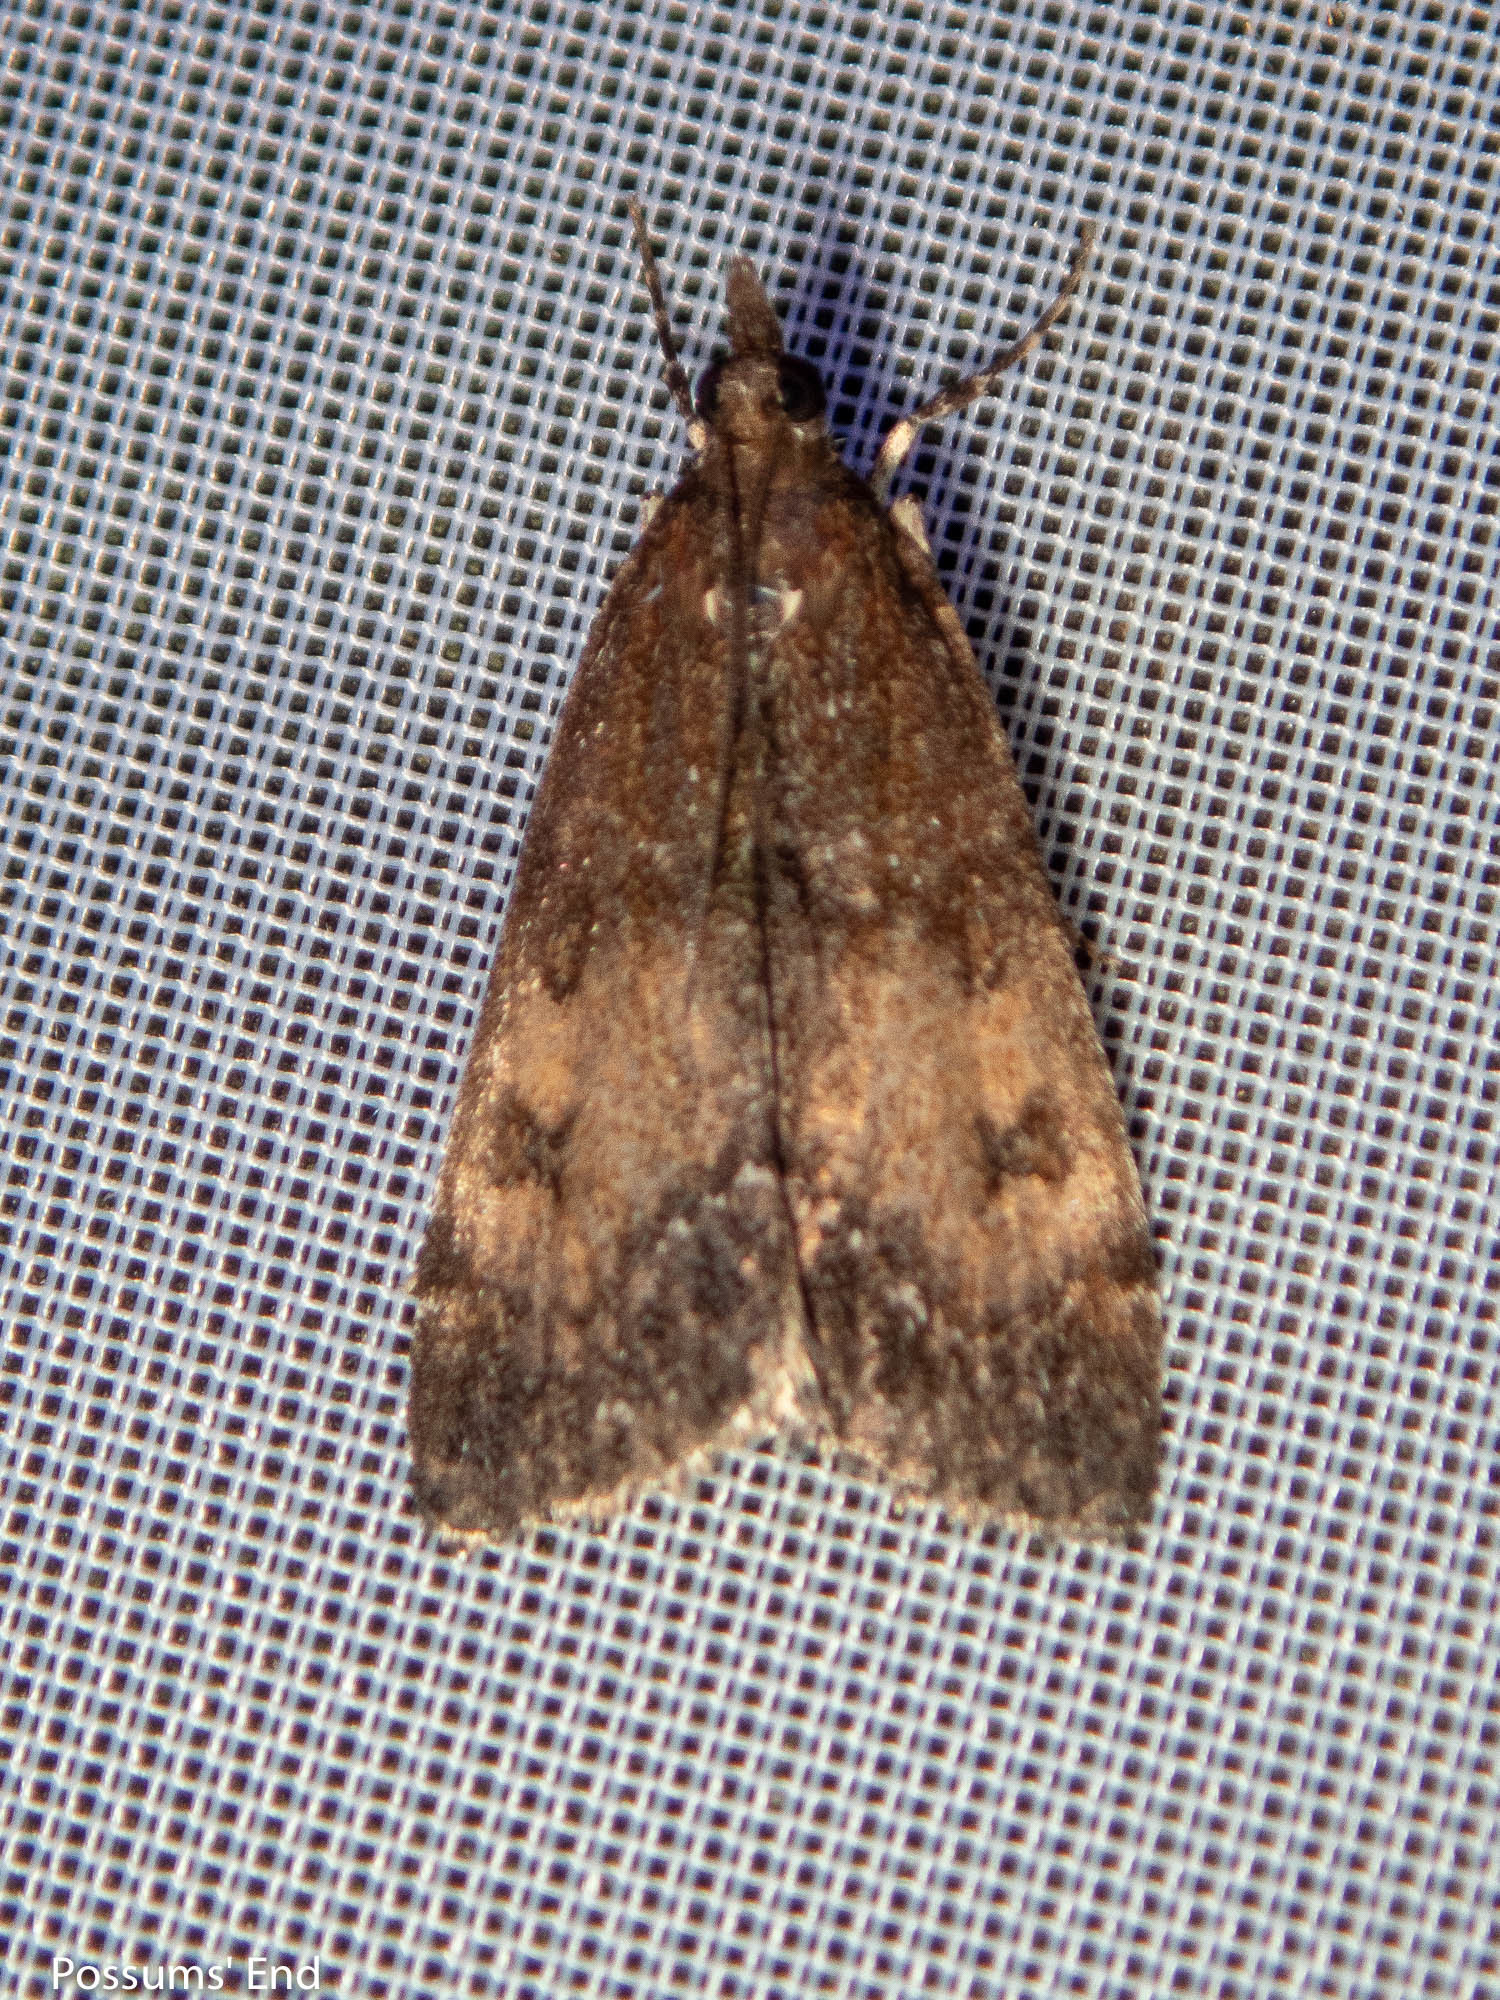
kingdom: Animalia
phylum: Arthropoda
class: Insecta
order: Lepidoptera
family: Crambidae
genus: Eudonia
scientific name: Eudonia asterisca
